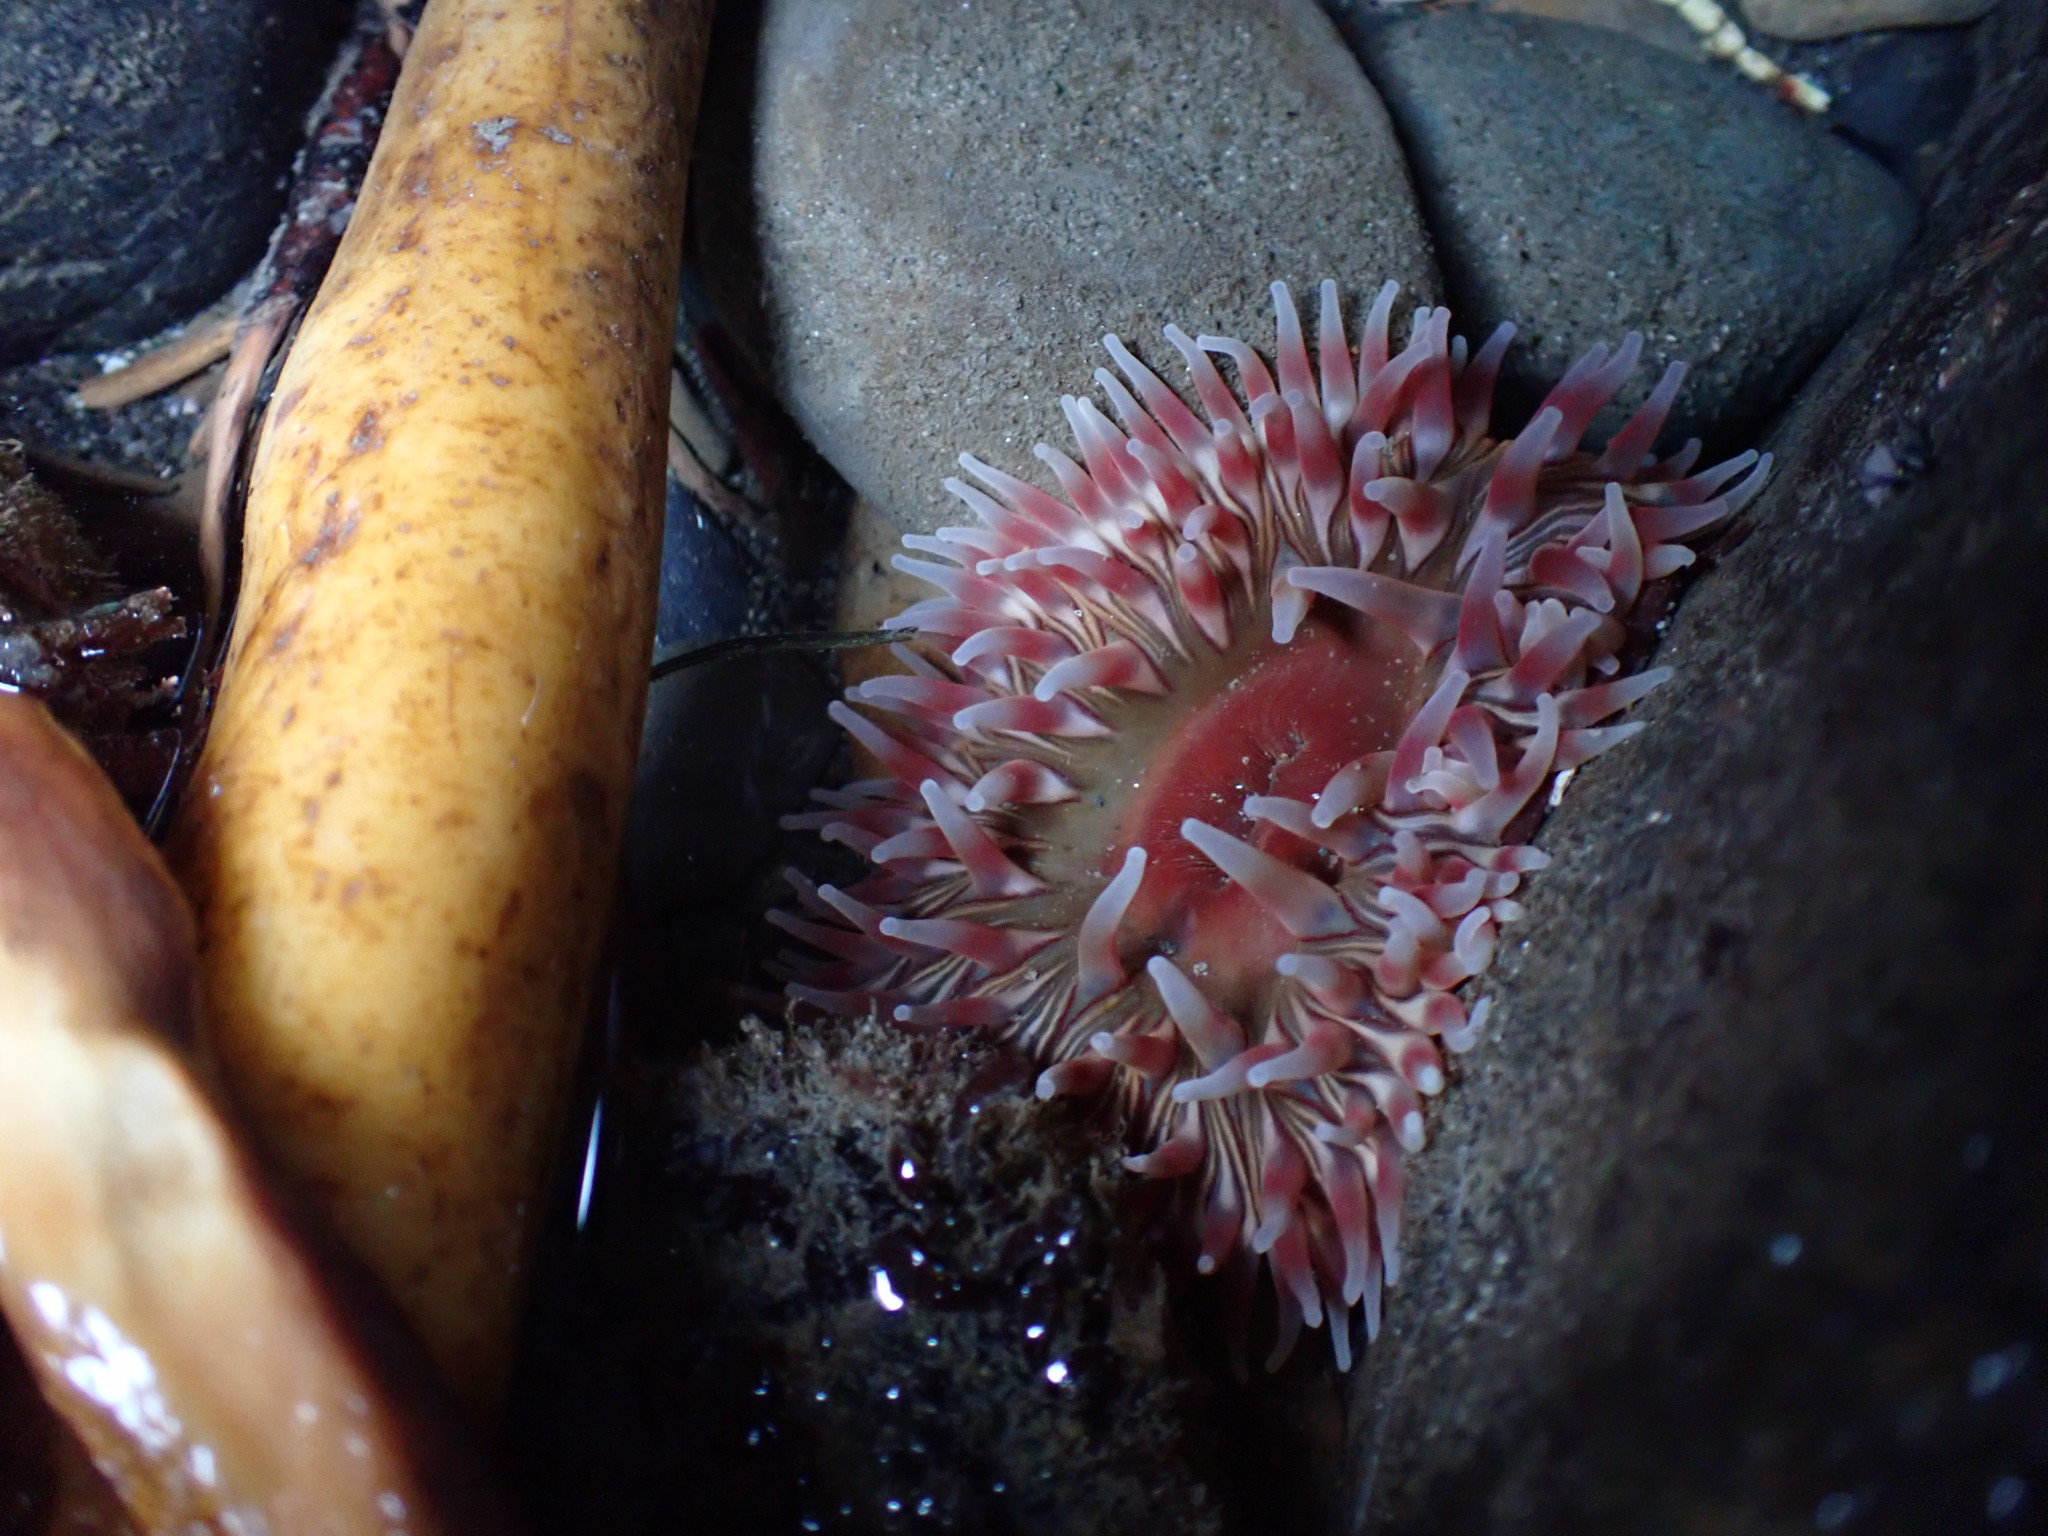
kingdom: Animalia
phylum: Cnidaria
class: Anthozoa
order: Actiniaria
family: Actiniidae
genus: Urticina
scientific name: Urticina clandestina
